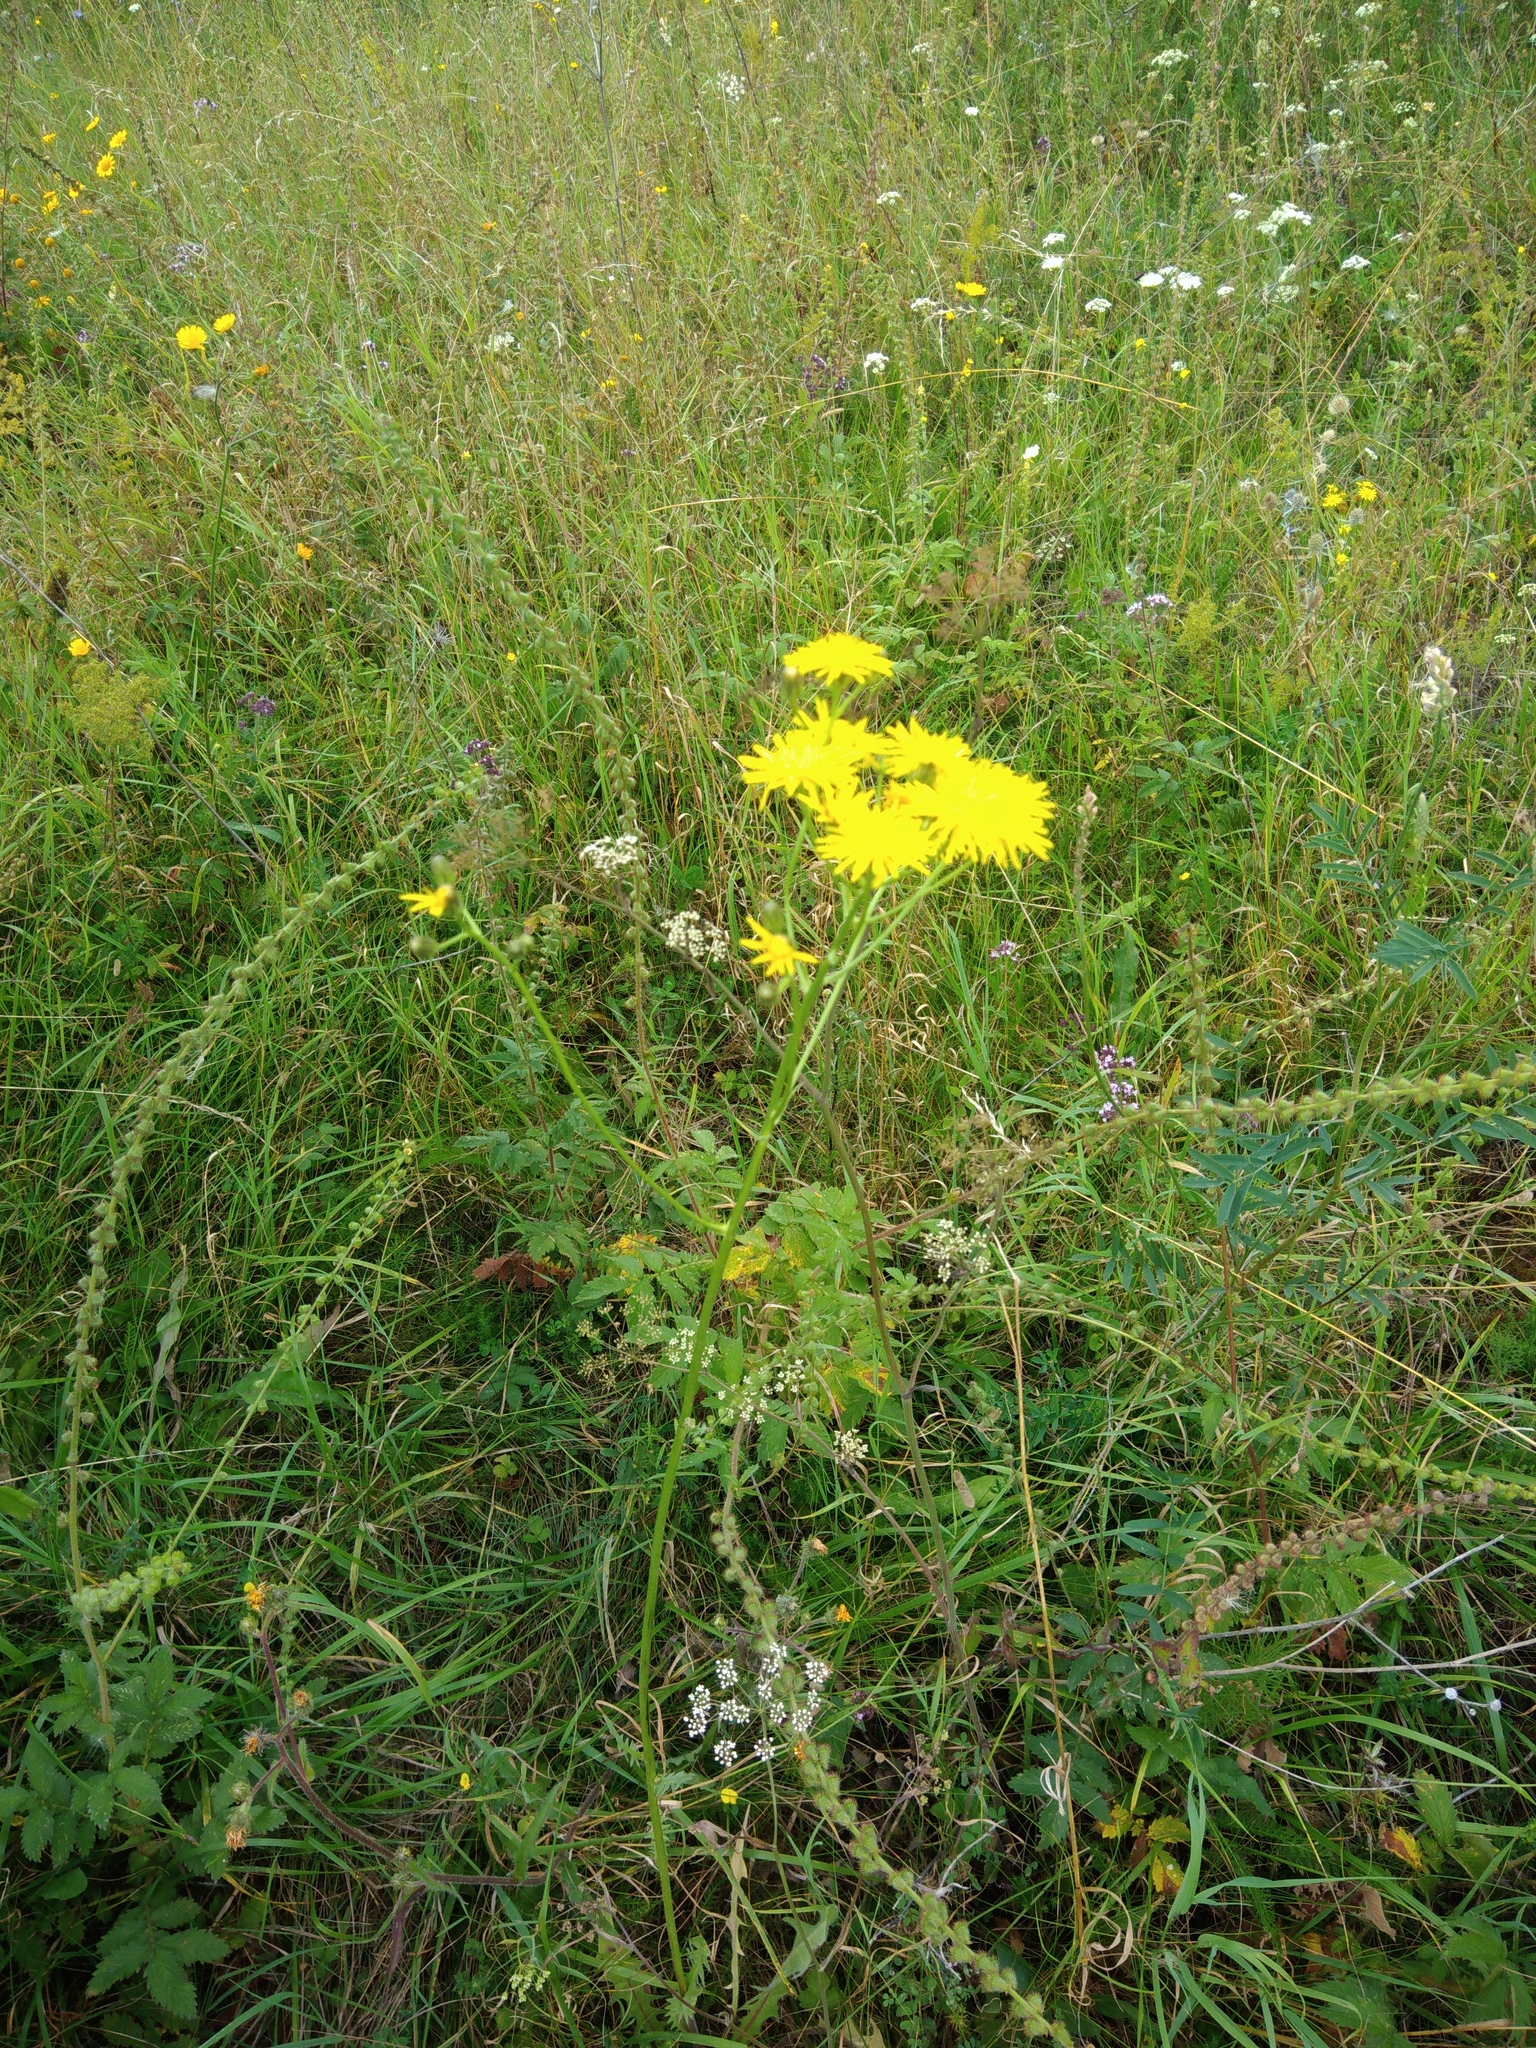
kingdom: Plantae
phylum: Tracheophyta
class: Magnoliopsida
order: Asterales
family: Asteraceae
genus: Crepis
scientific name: Crepis biennis
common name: Rough hawk's-beard
